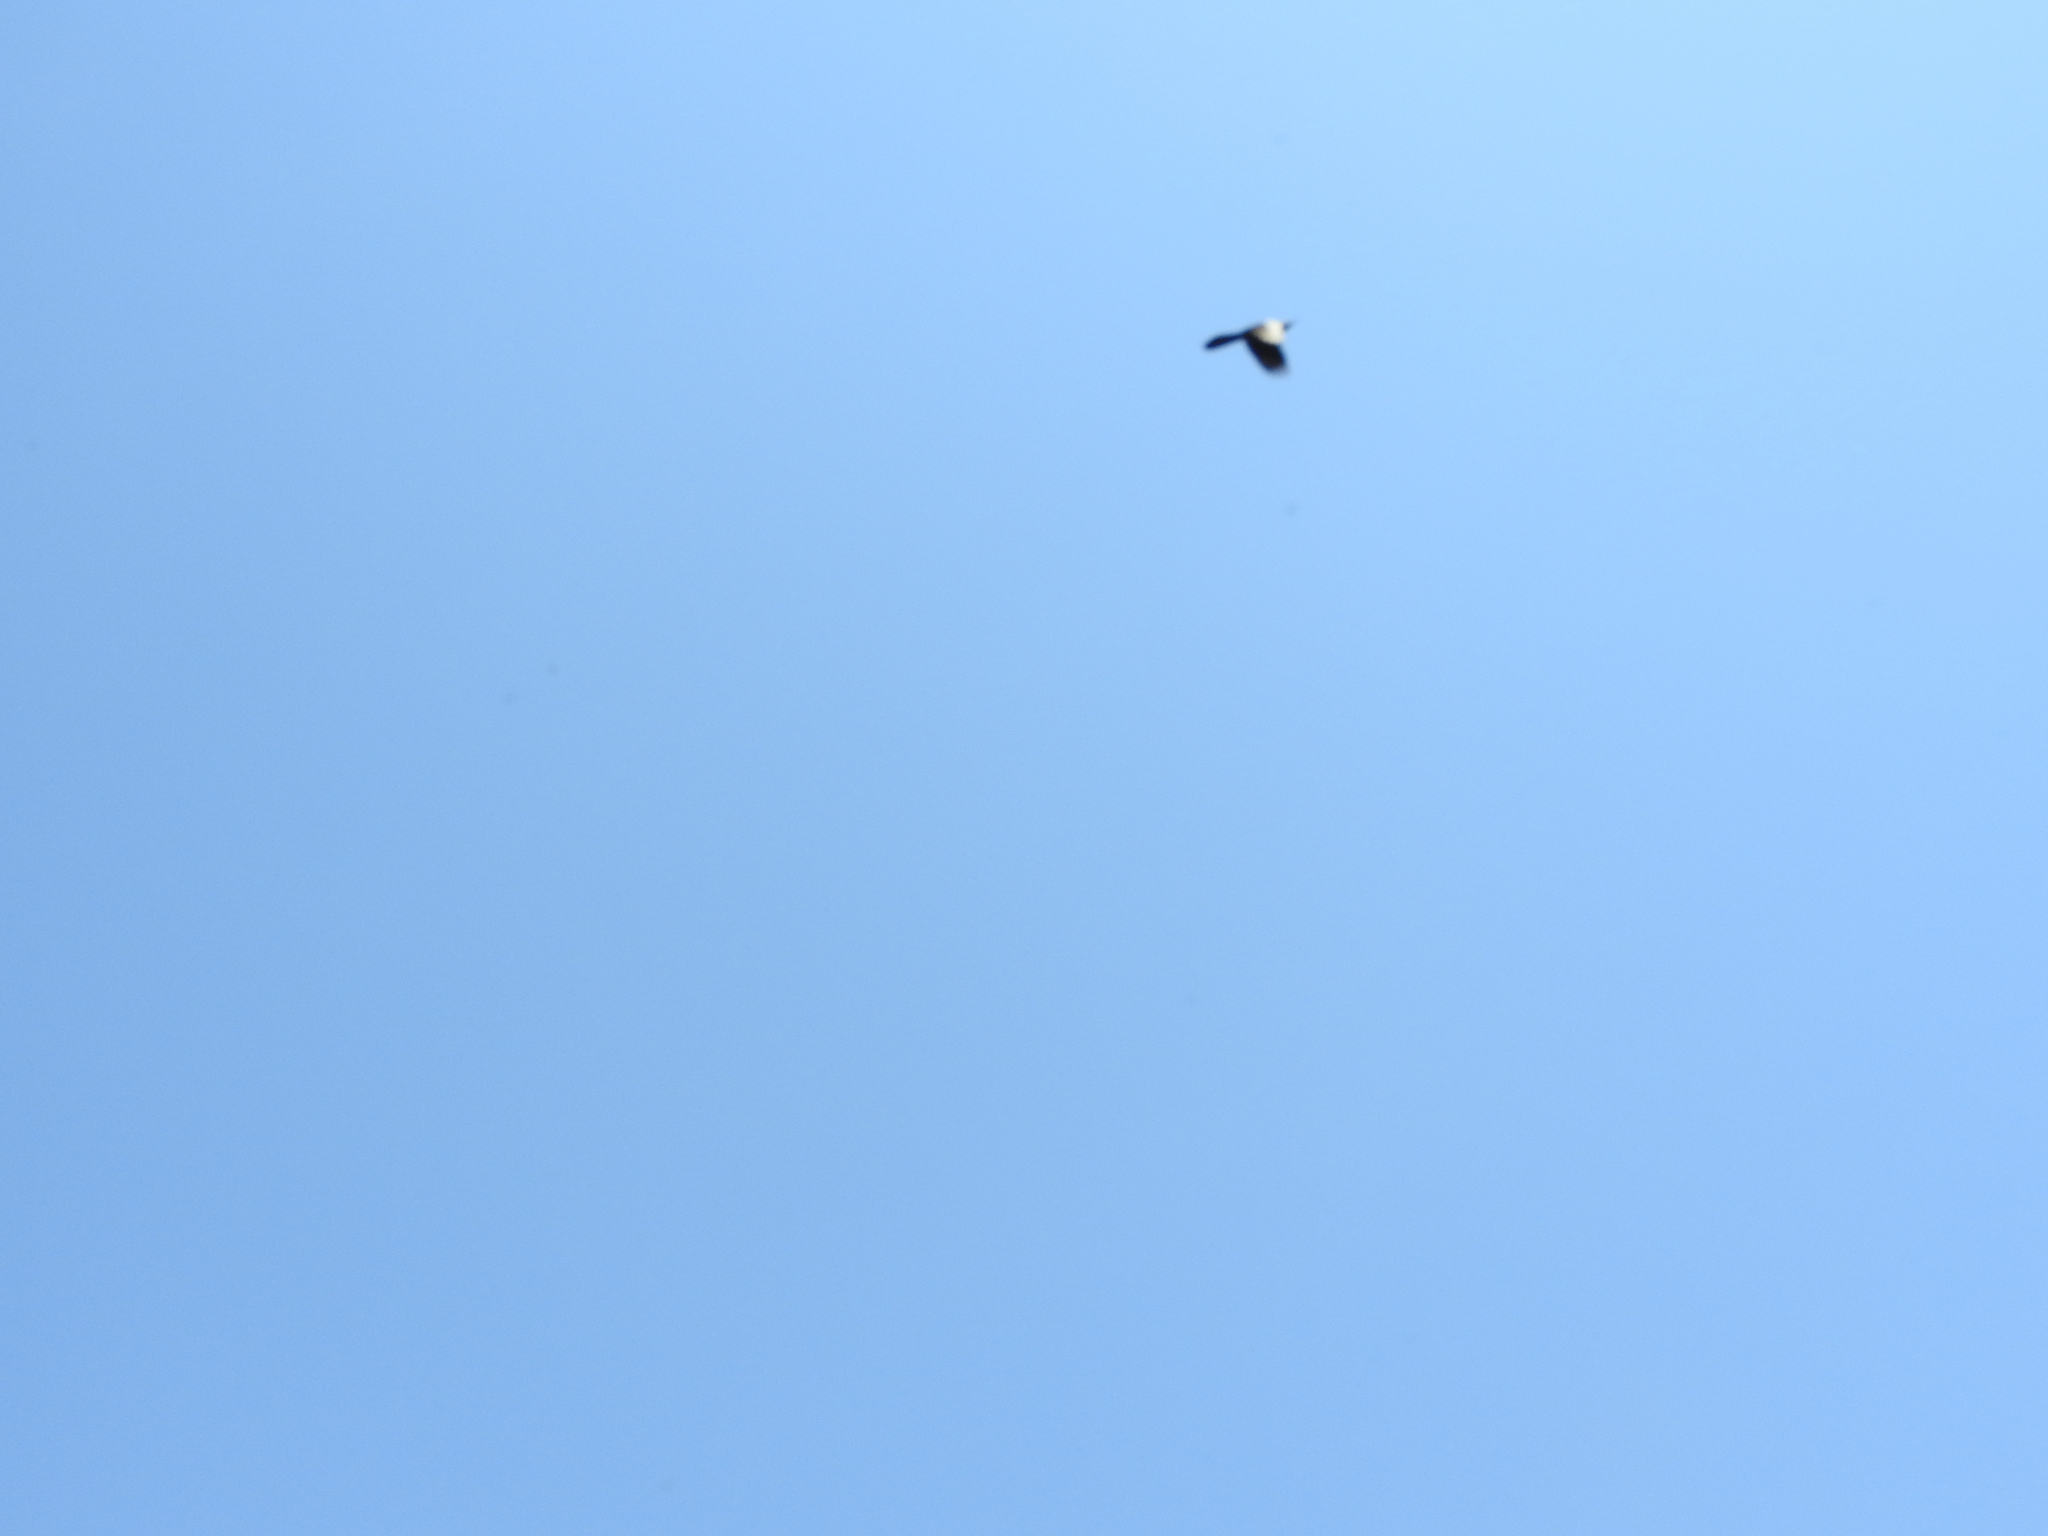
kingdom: Animalia
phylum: Chordata
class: Aves
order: Passeriformes
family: Icteridae
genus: Quiscalus
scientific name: Quiscalus mexicanus
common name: Great-tailed grackle
